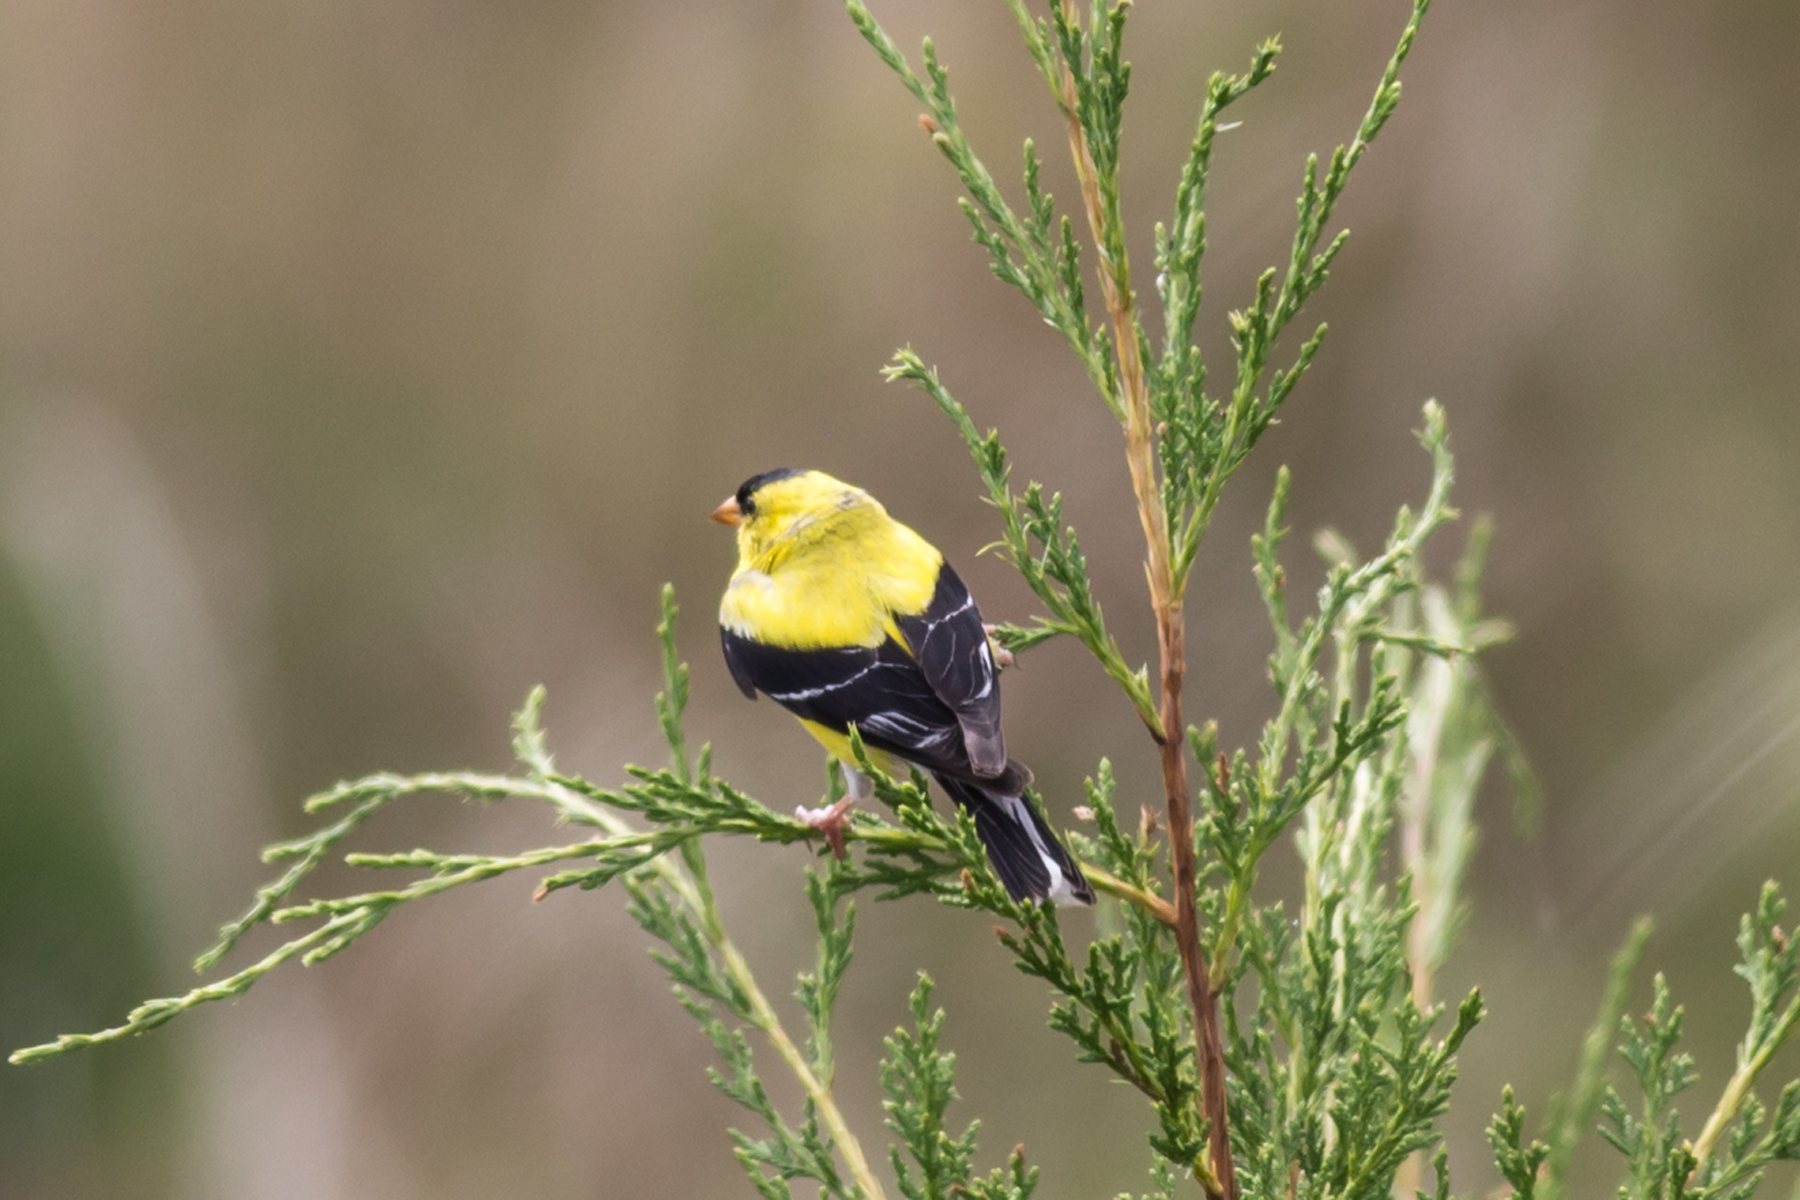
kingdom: Animalia
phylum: Chordata
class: Aves
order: Passeriformes
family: Fringillidae
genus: Spinus
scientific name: Spinus tristis
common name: American goldfinch
